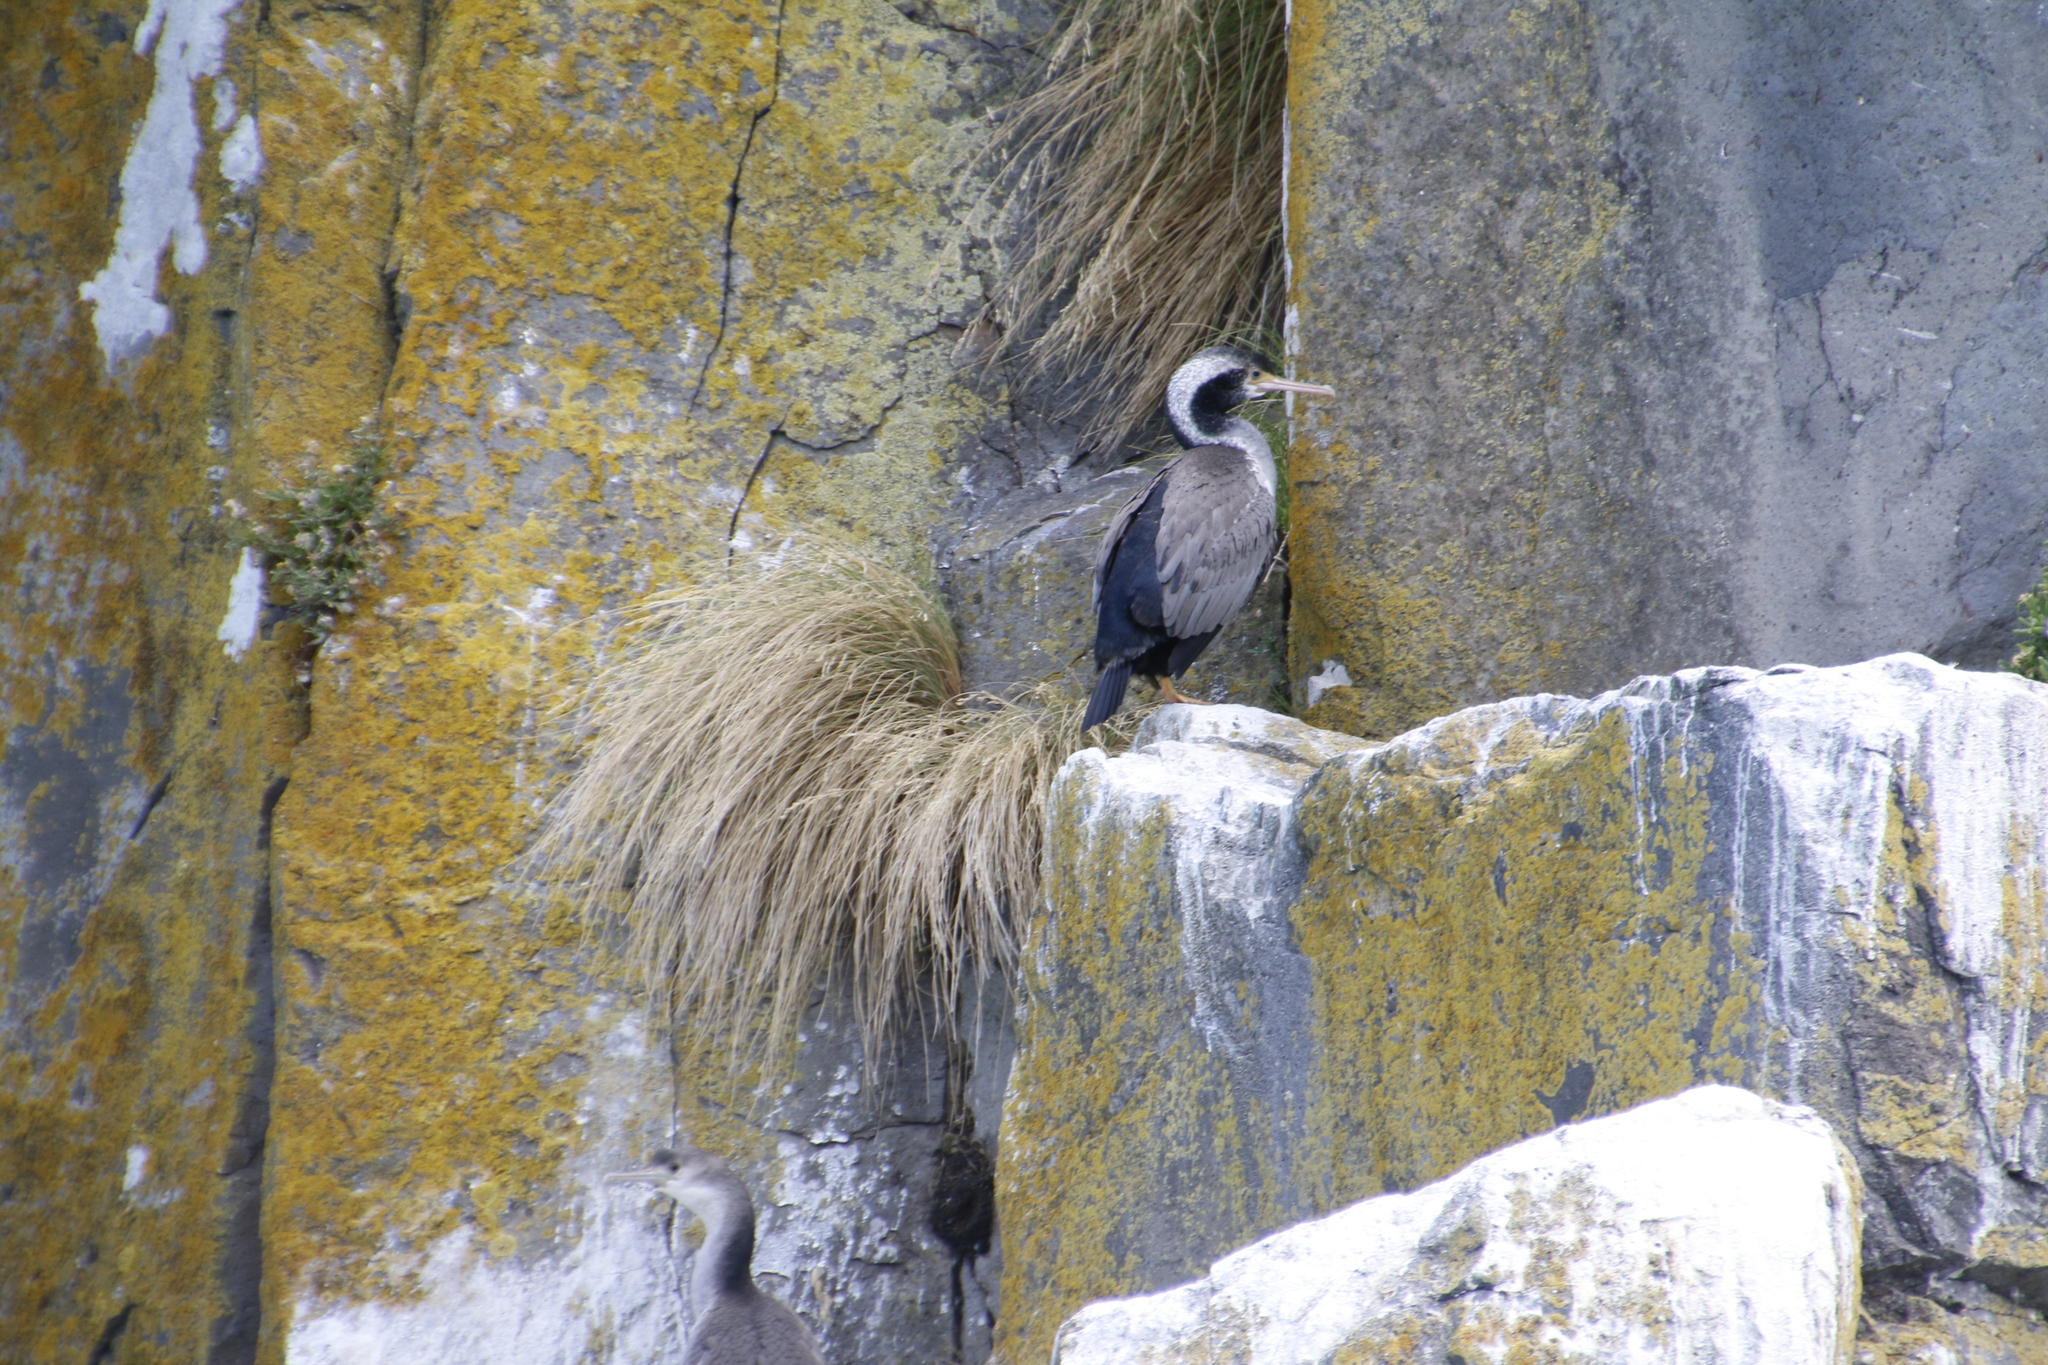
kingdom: Animalia
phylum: Chordata
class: Aves
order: Suliformes
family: Phalacrocoracidae
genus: Phalacrocorax
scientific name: Phalacrocorax punctatus
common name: Spotted shag
